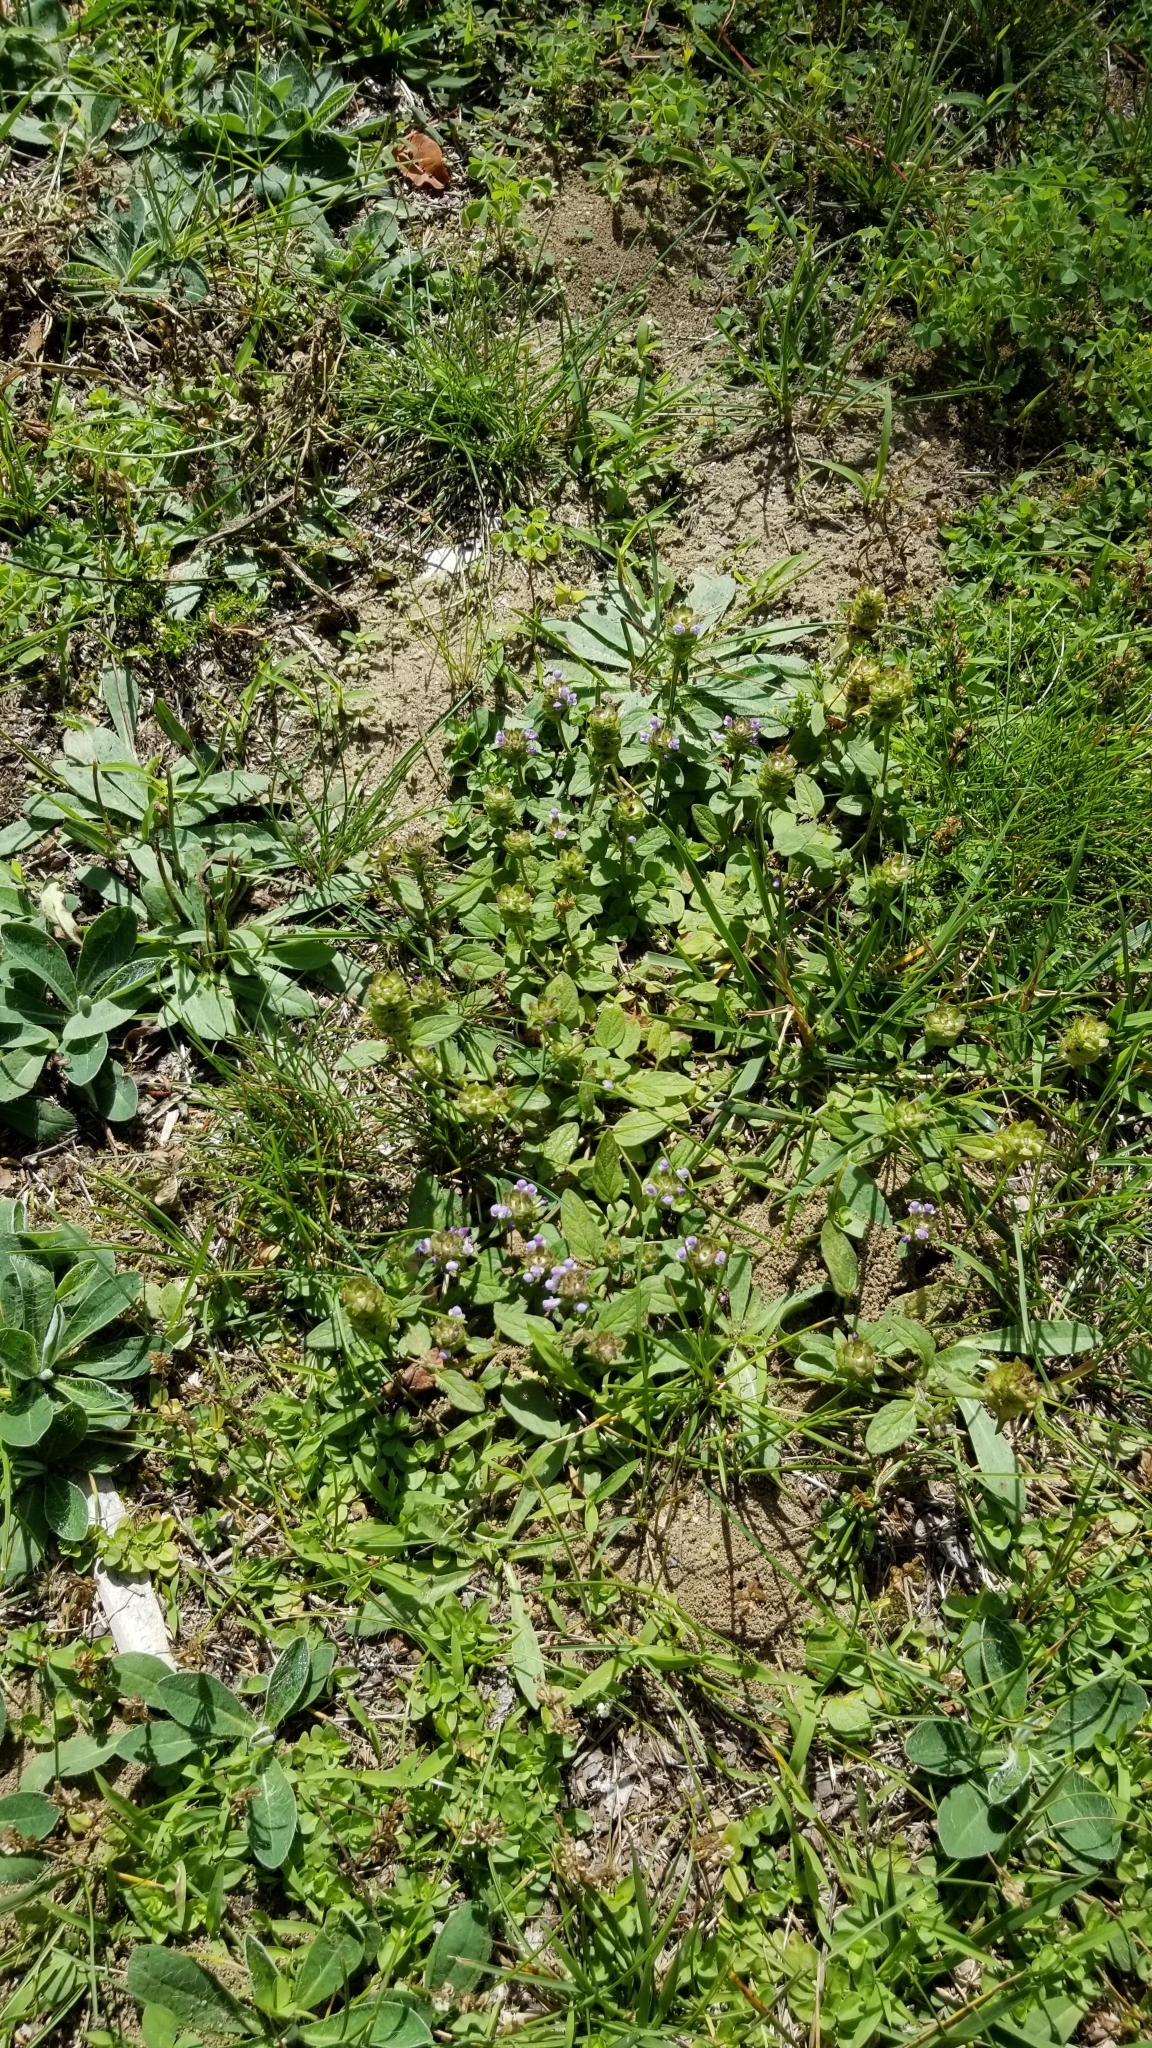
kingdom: Plantae
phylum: Tracheophyta
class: Magnoliopsida
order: Lamiales
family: Lamiaceae
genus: Prunella
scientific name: Prunella vulgaris
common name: Heal-all
